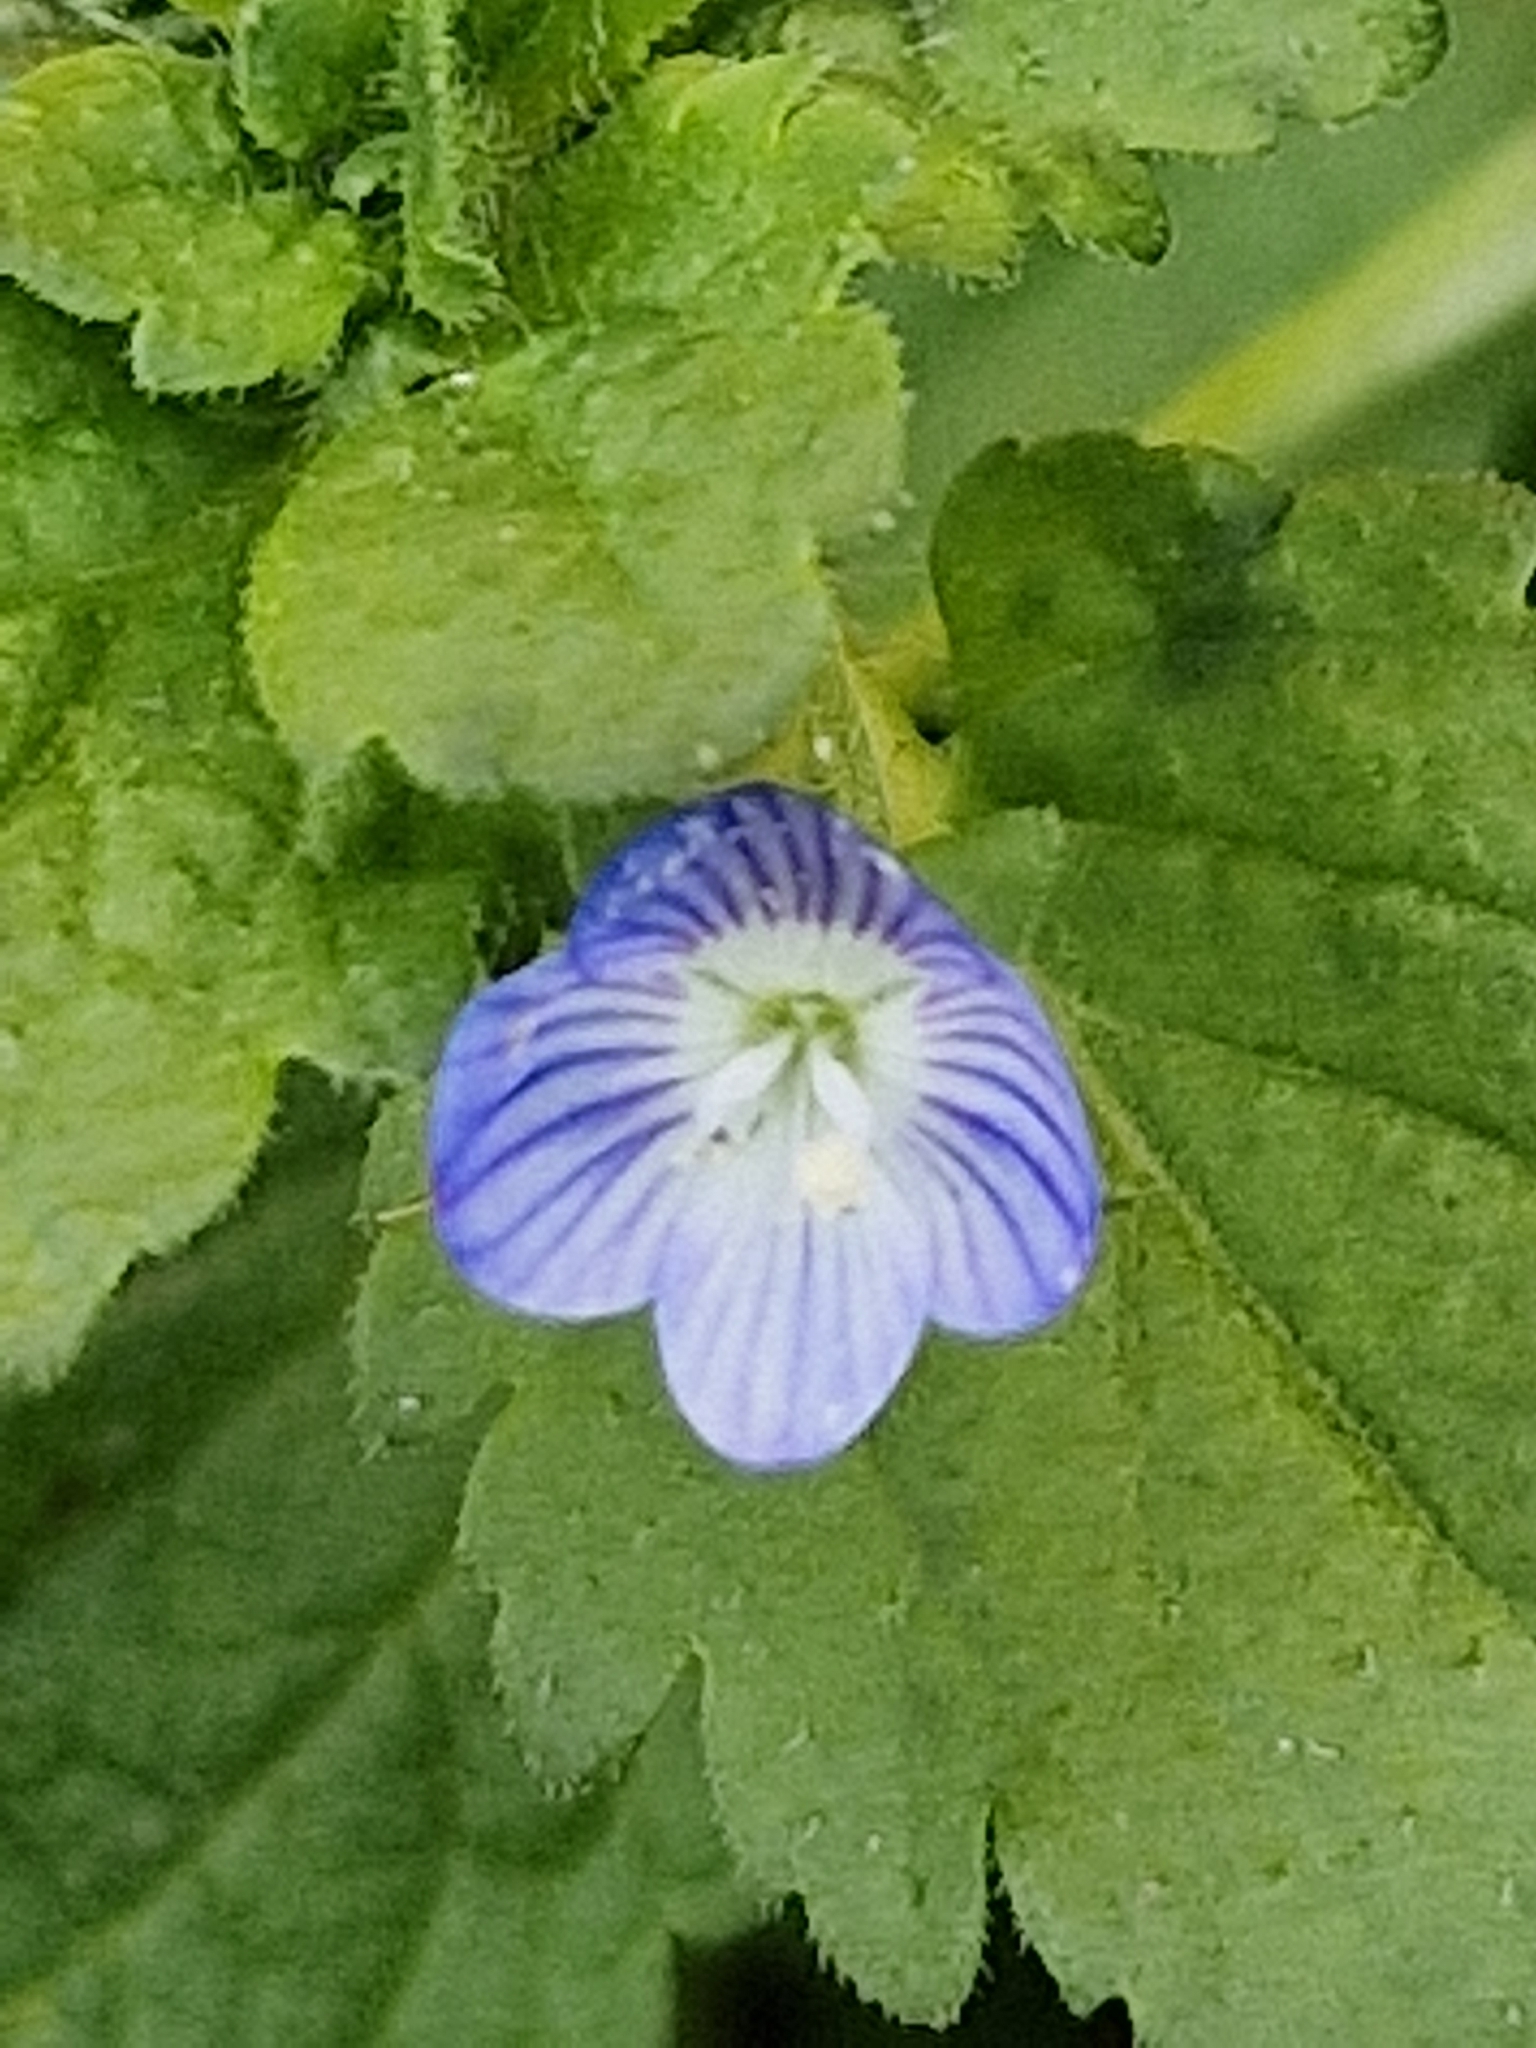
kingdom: Plantae
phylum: Tracheophyta
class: Magnoliopsida
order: Lamiales
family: Plantaginaceae
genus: Veronica
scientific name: Veronica persica
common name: Common field-speedwell
